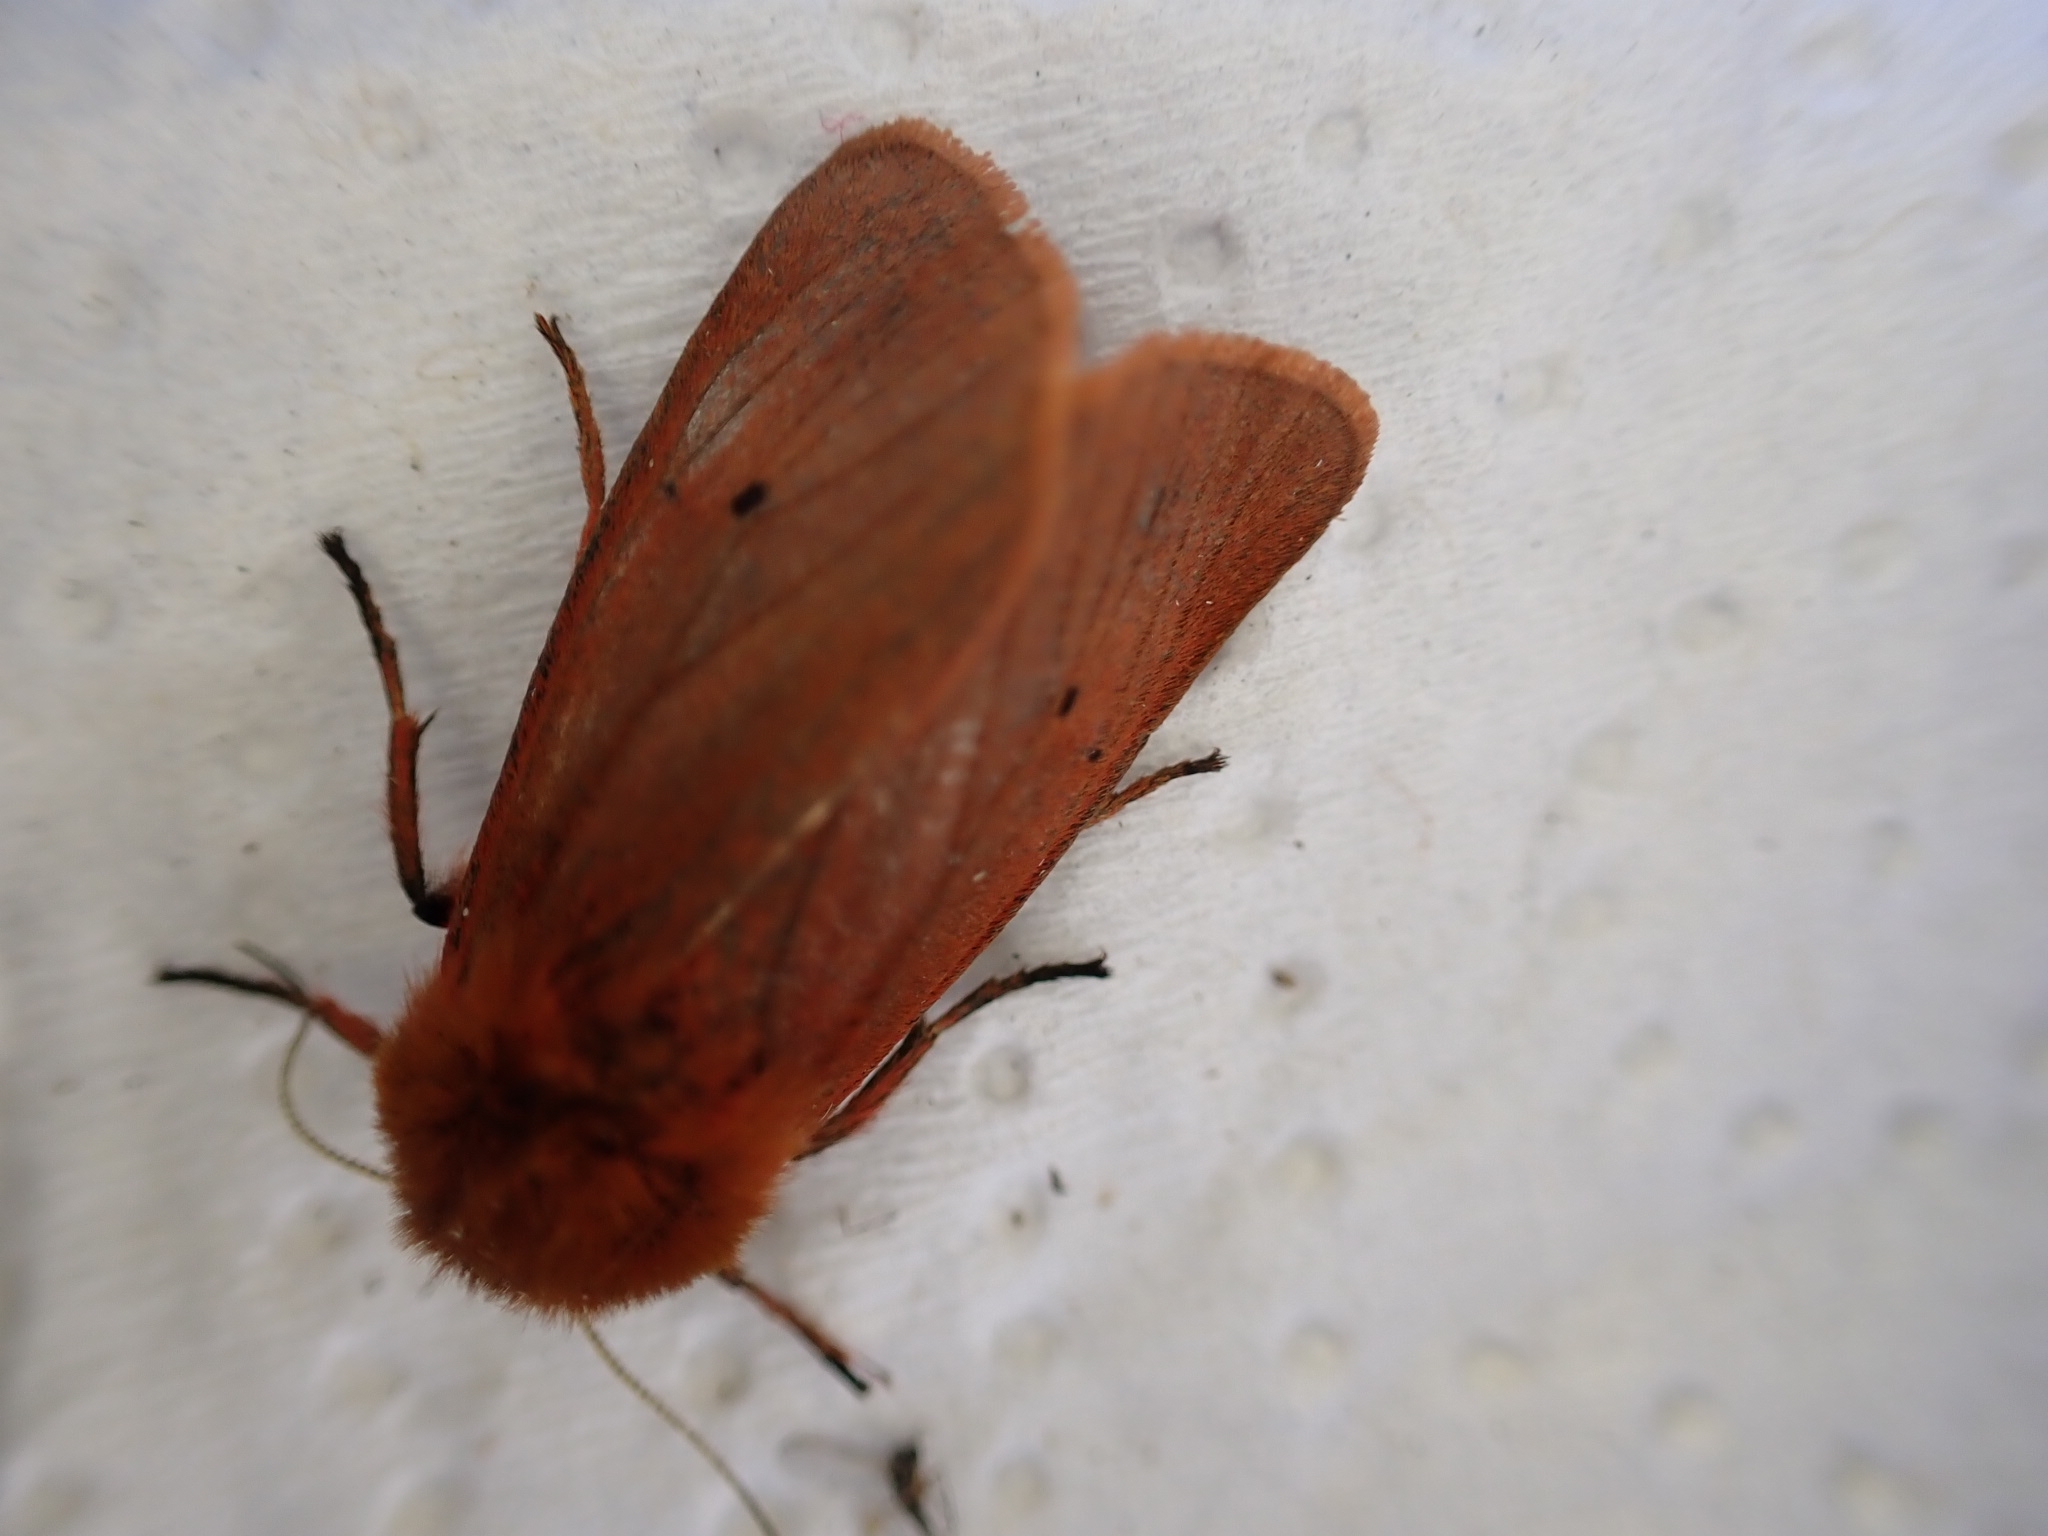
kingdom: Animalia
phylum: Arthropoda
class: Insecta
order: Lepidoptera
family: Erebidae
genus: Phragmatobia
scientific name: Phragmatobia fuliginosa
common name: Ruby tiger
